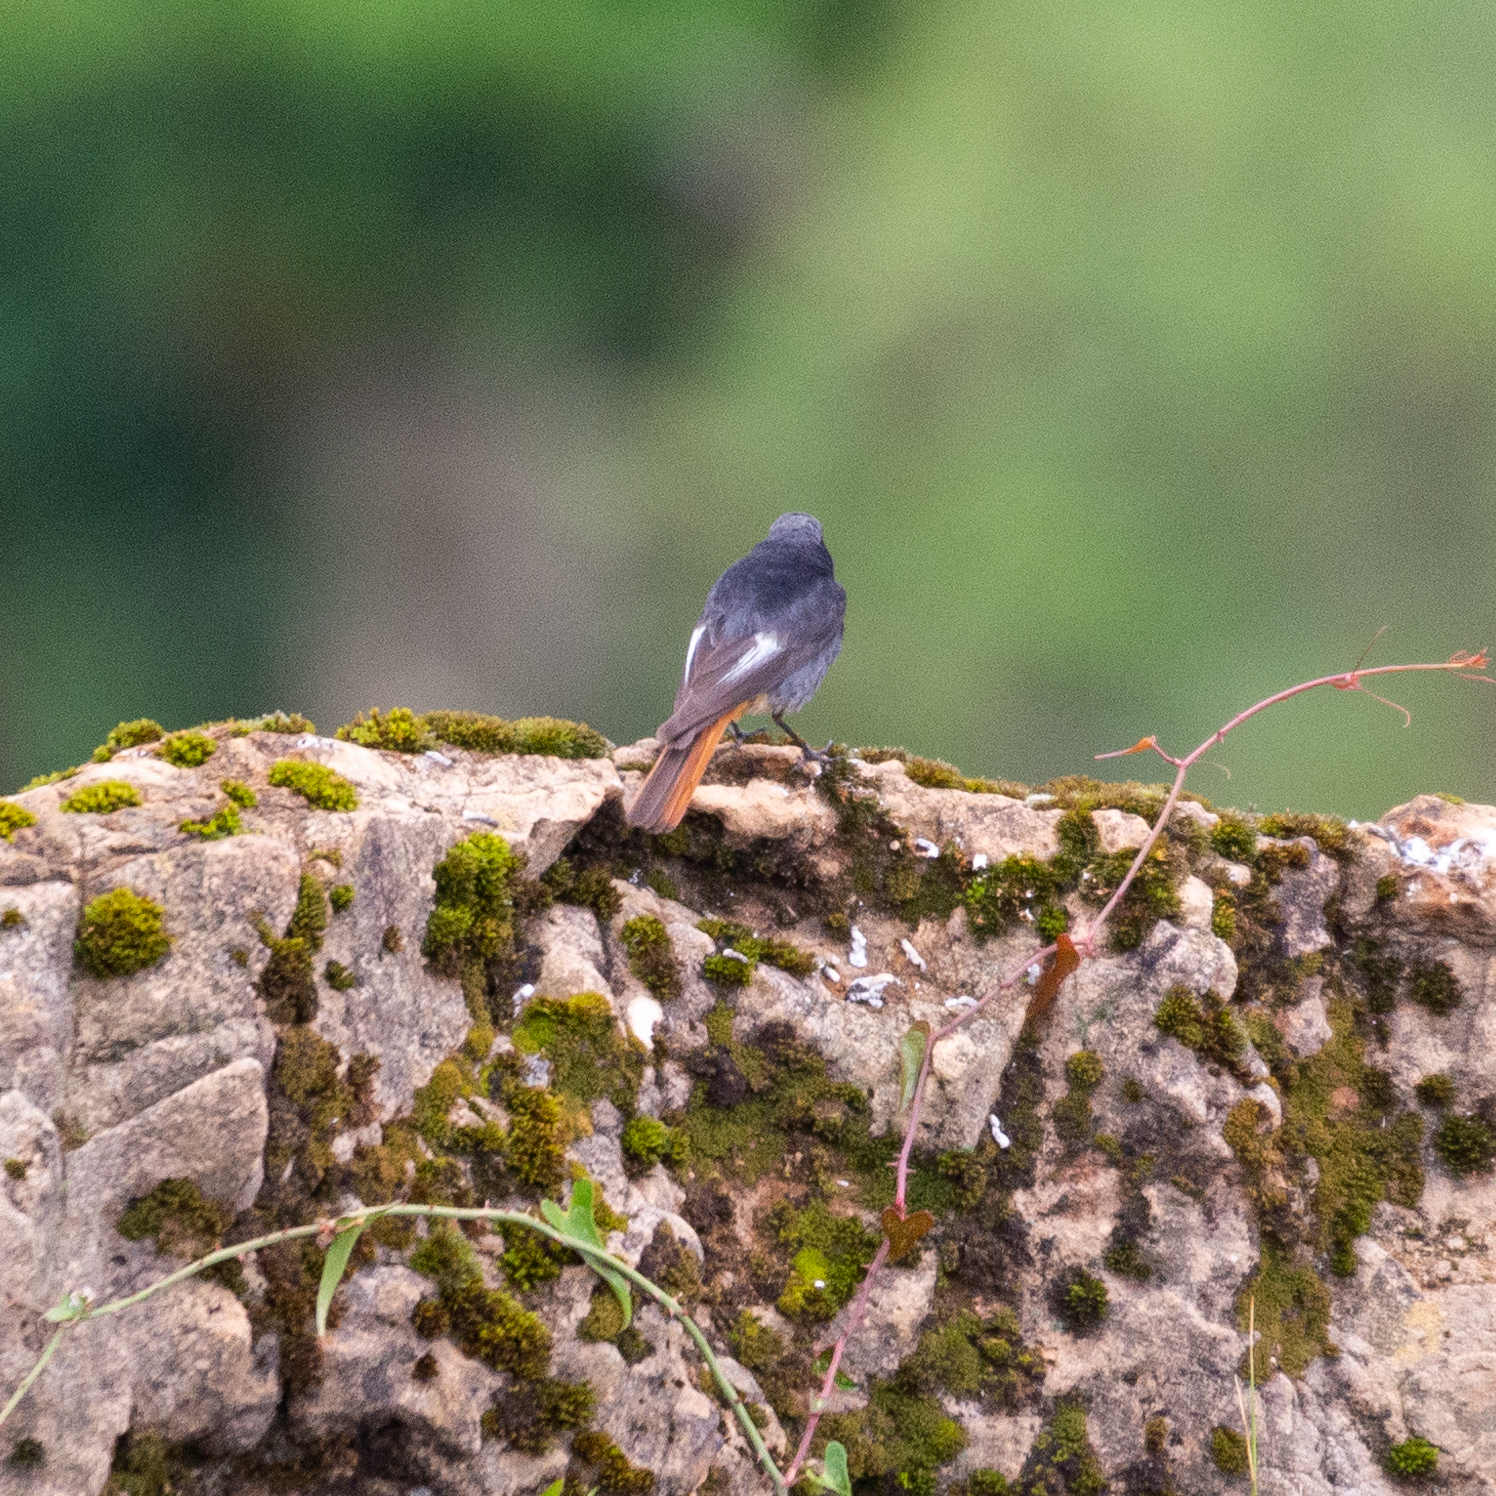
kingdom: Animalia
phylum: Chordata
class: Aves
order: Passeriformes
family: Muscicapidae
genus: Phoenicurus
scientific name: Phoenicurus ochruros
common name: Black redstart
